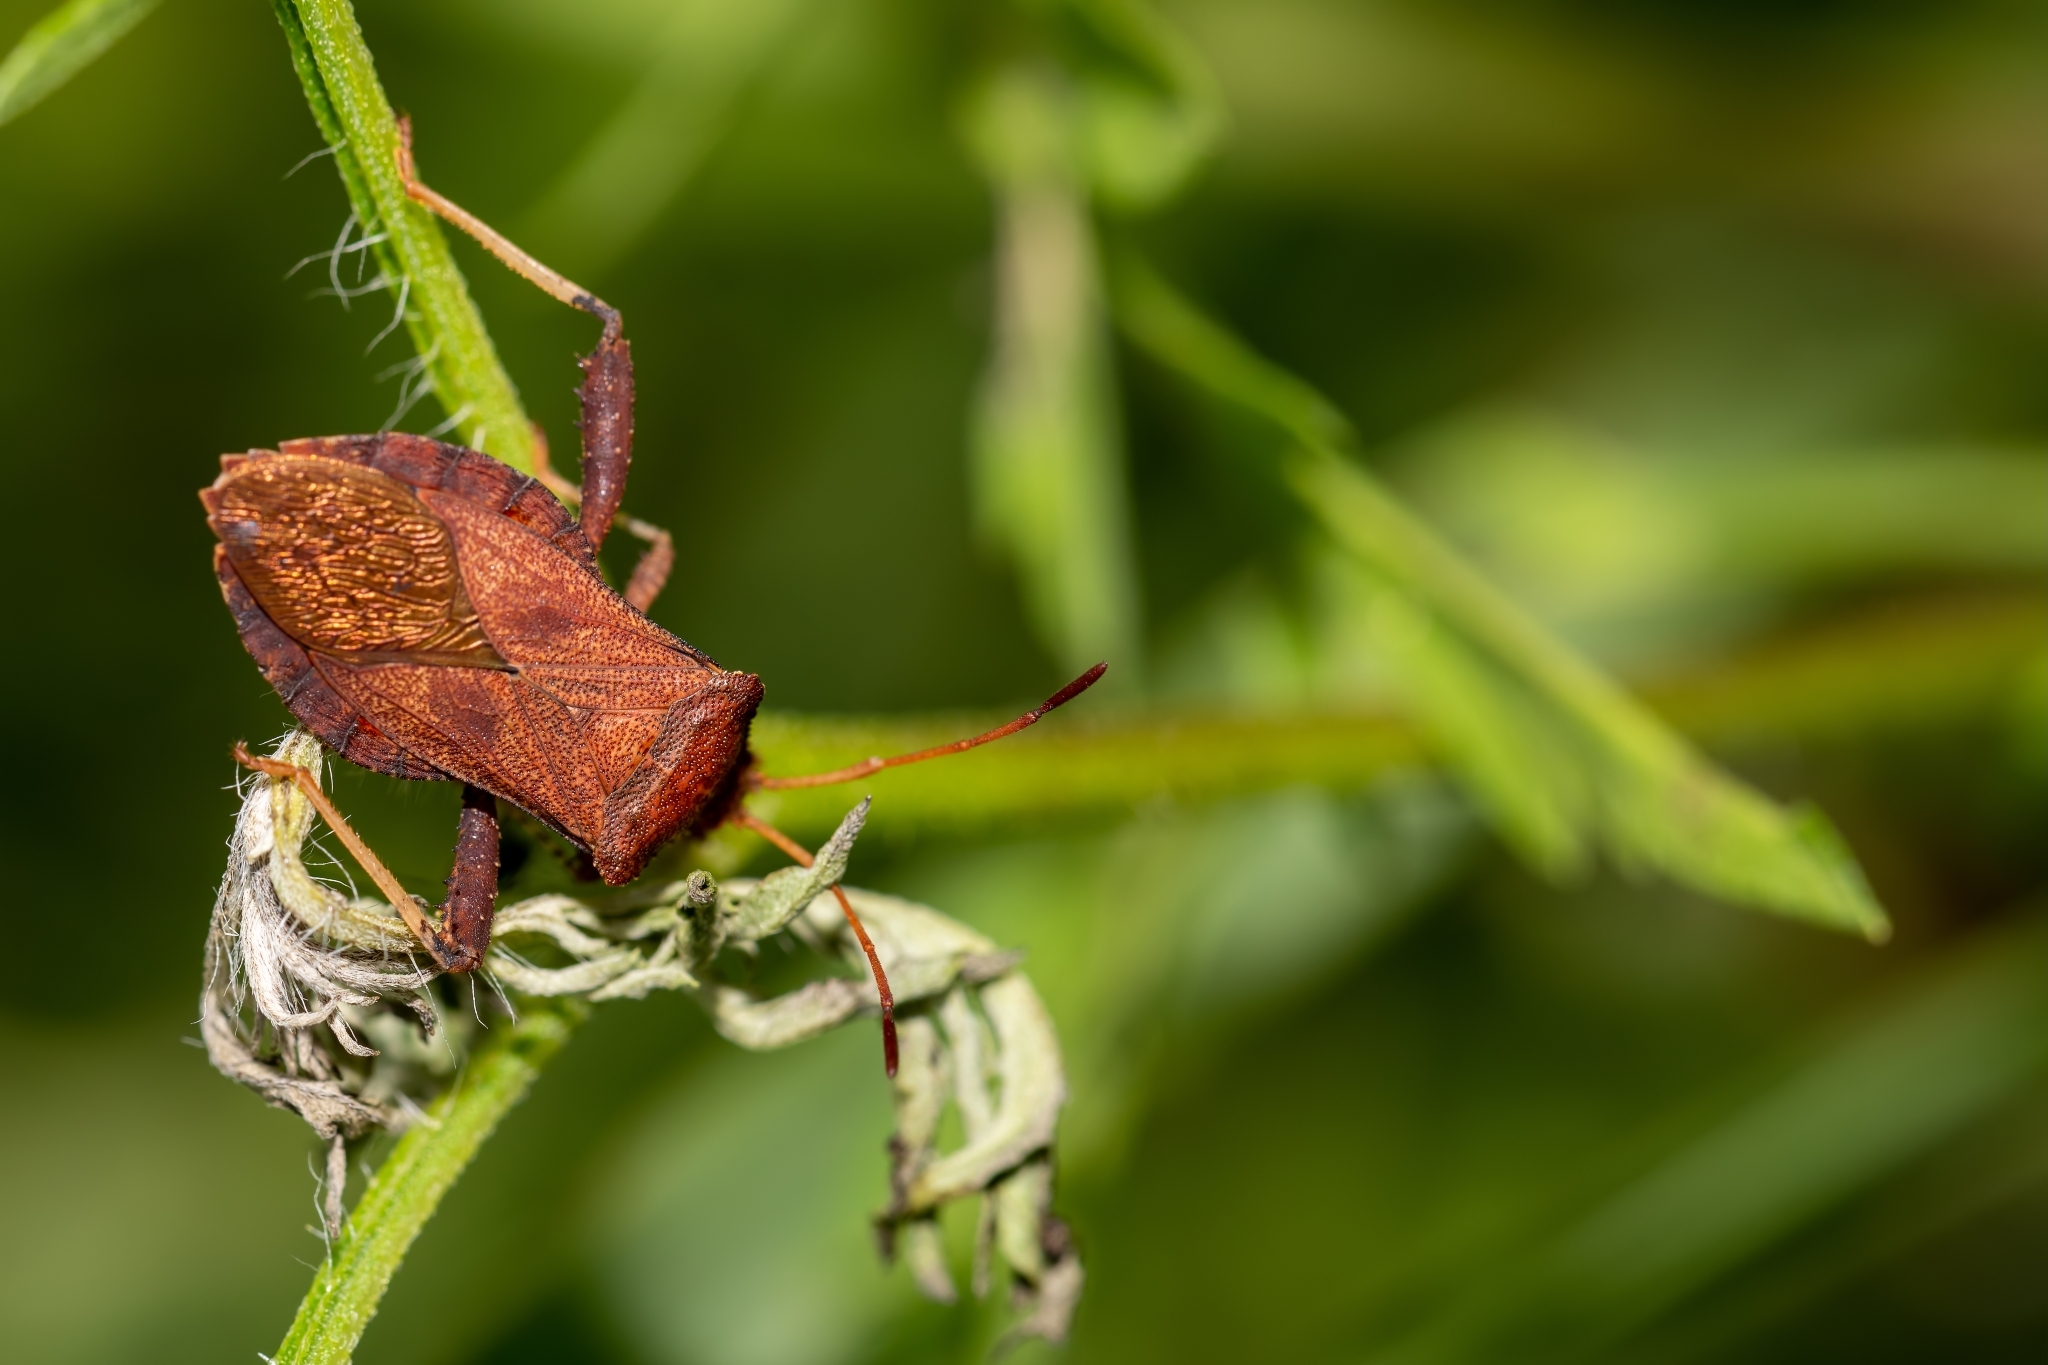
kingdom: Animalia
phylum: Arthropoda
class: Insecta
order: Hemiptera
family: Coreidae
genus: Euthochtha
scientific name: Euthochtha galeator
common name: Helmeted squash bug
